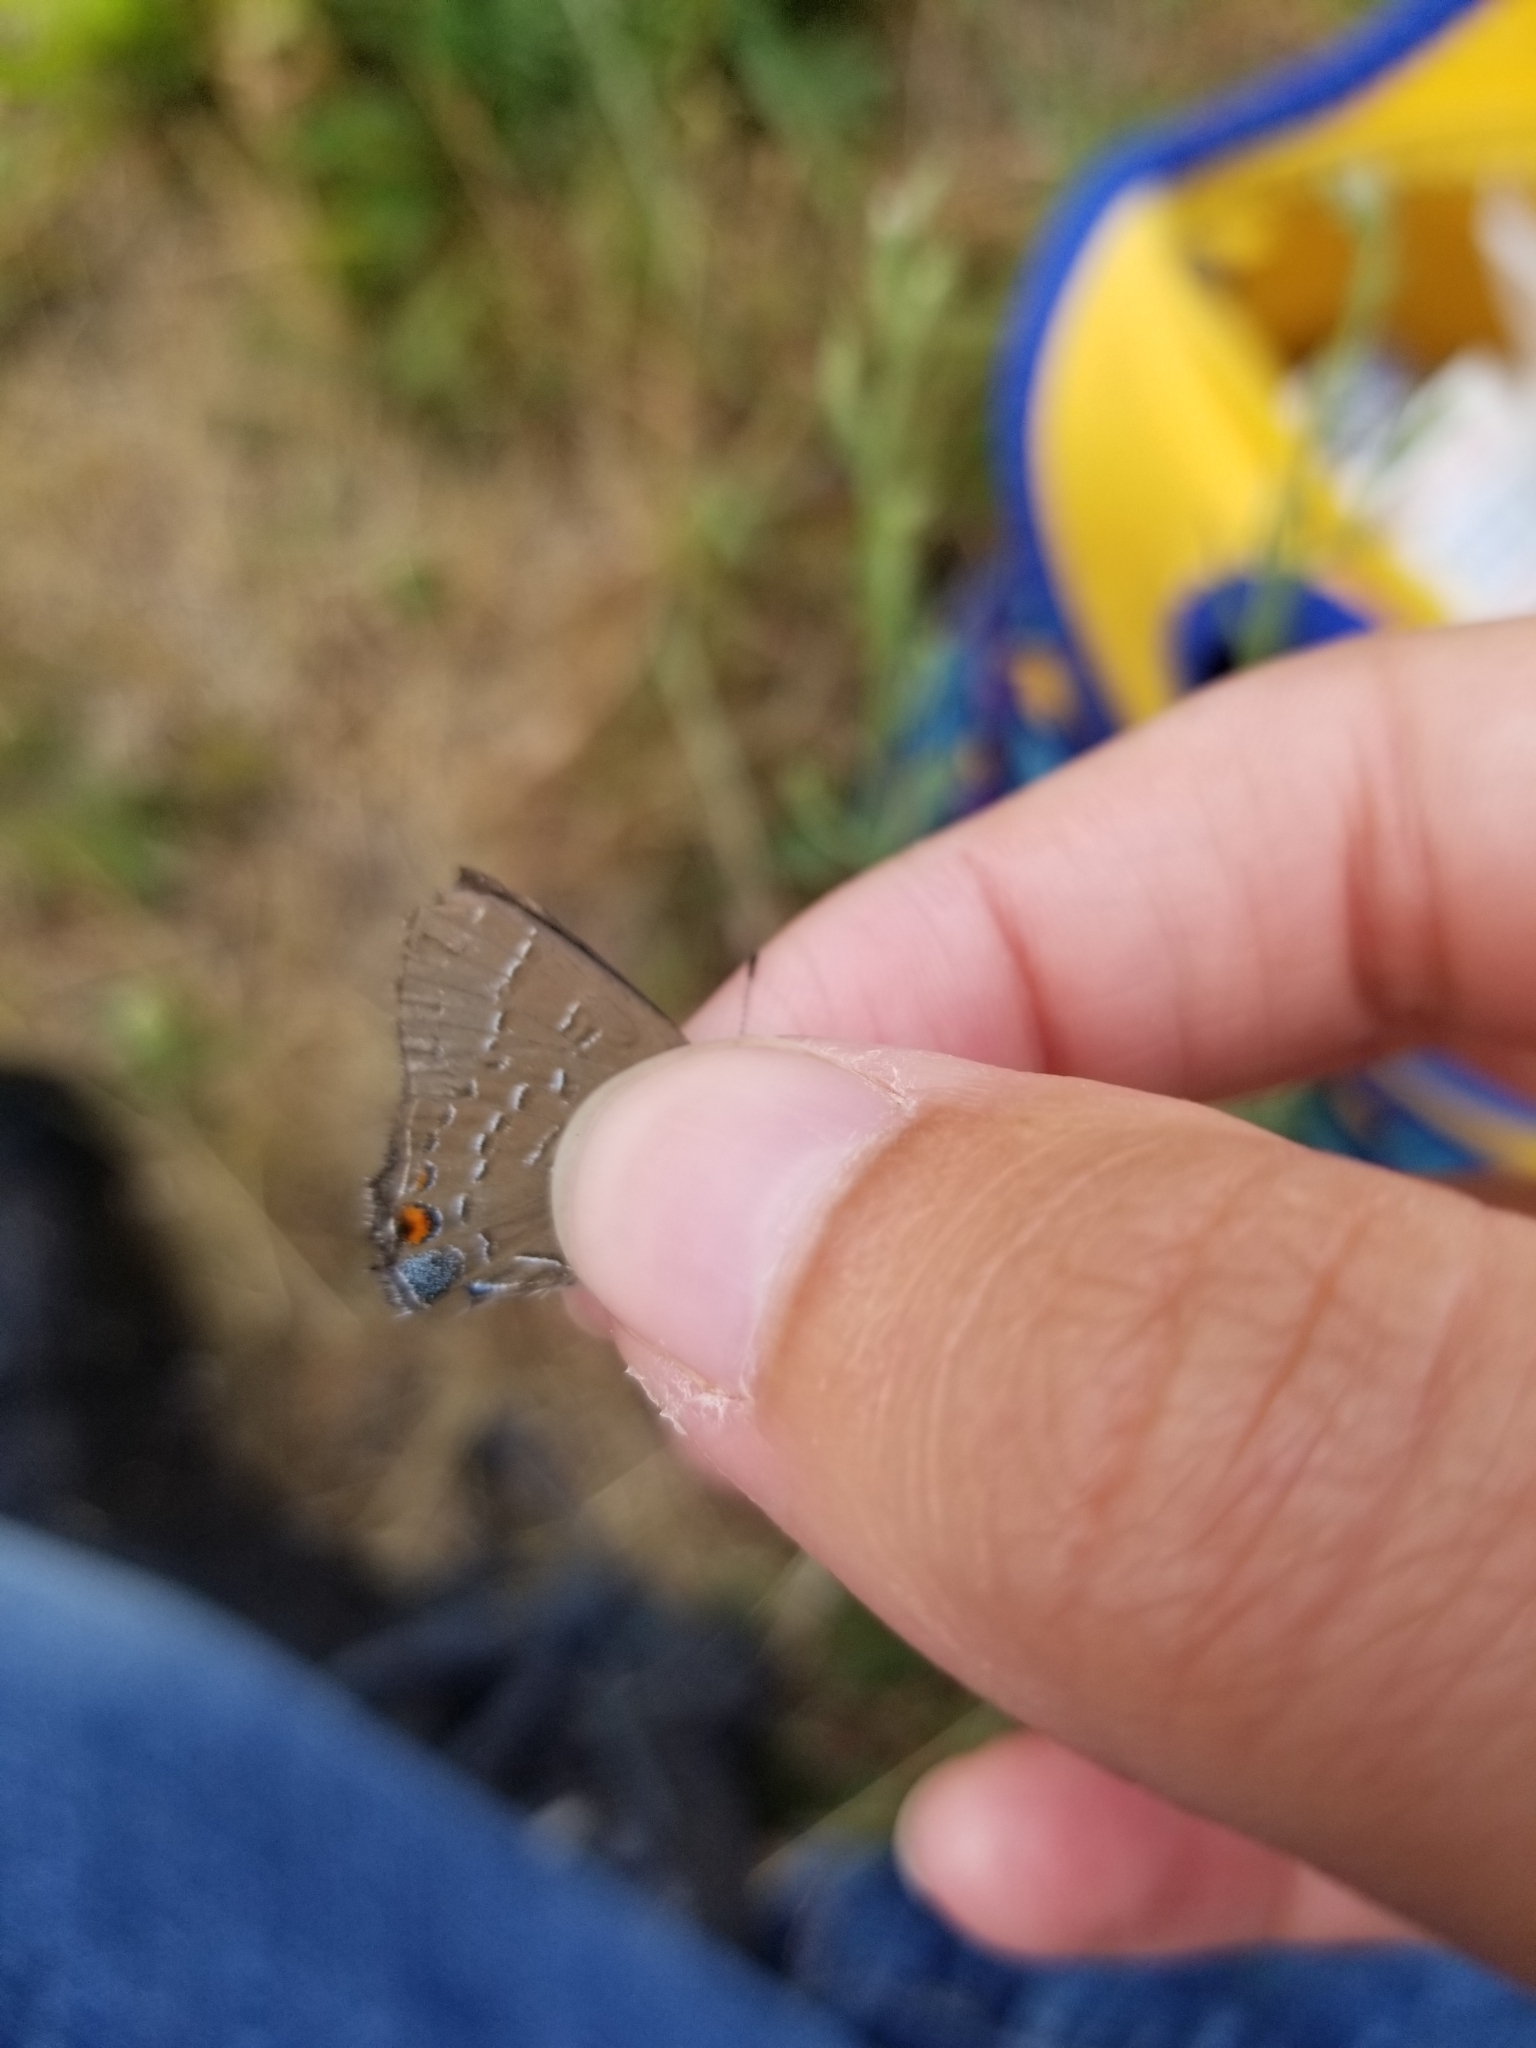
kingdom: Animalia
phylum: Arthropoda
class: Insecta
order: Lepidoptera
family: Lycaenidae
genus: Satyrium
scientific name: Satyrium calanus
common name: Banded hairstreak
